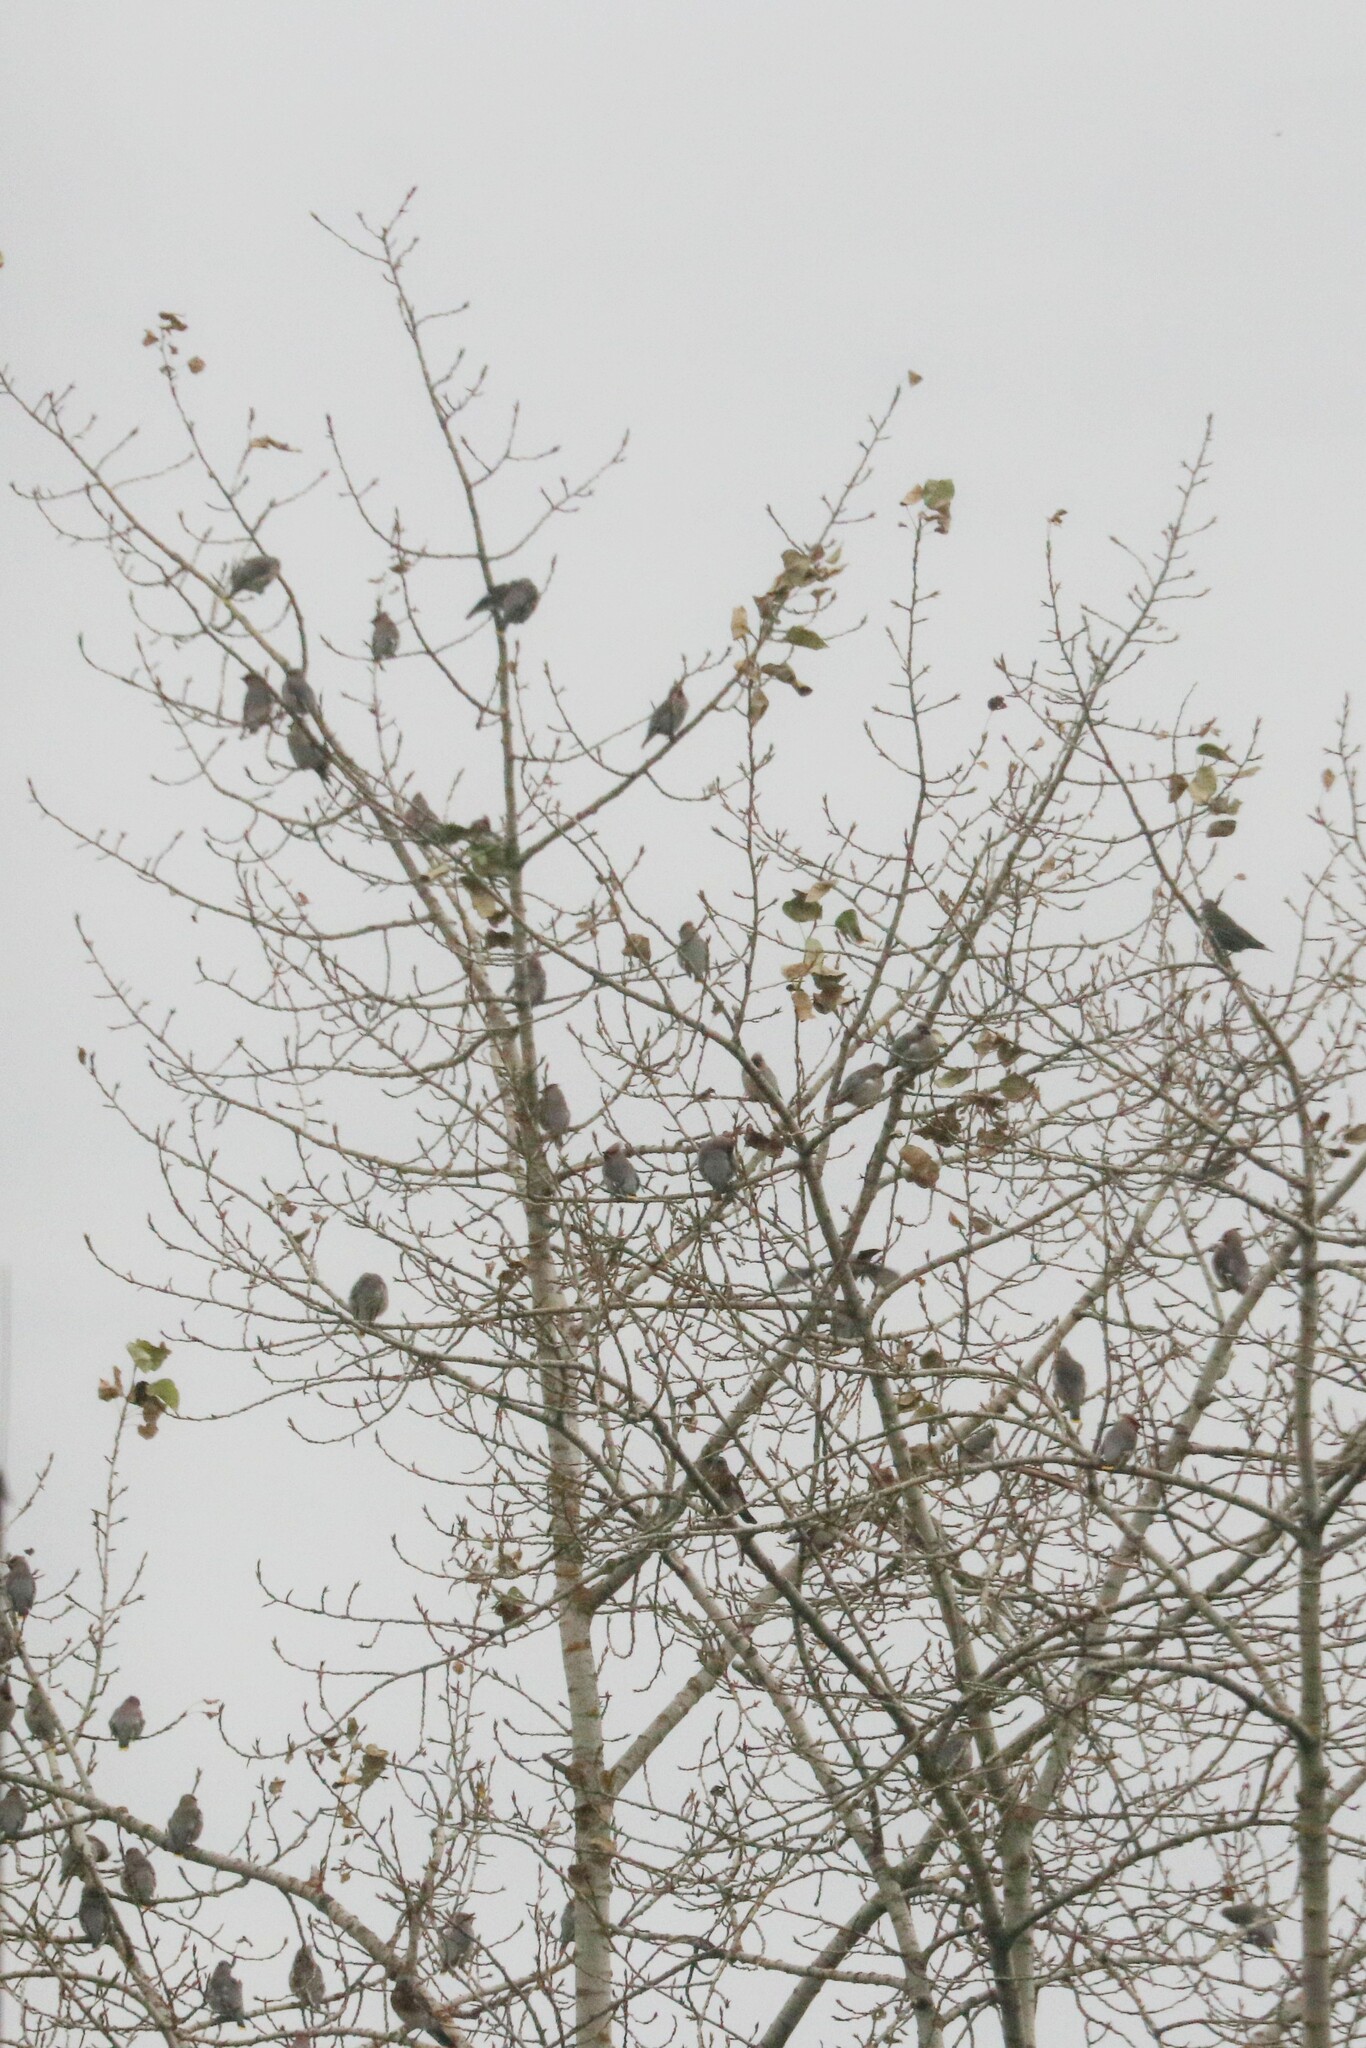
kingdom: Animalia
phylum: Chordata
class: Aves
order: Passeriformes
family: Bombycillidae
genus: Bombycilla
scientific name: Bombycilla garrulus
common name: Bohemian waxwing
